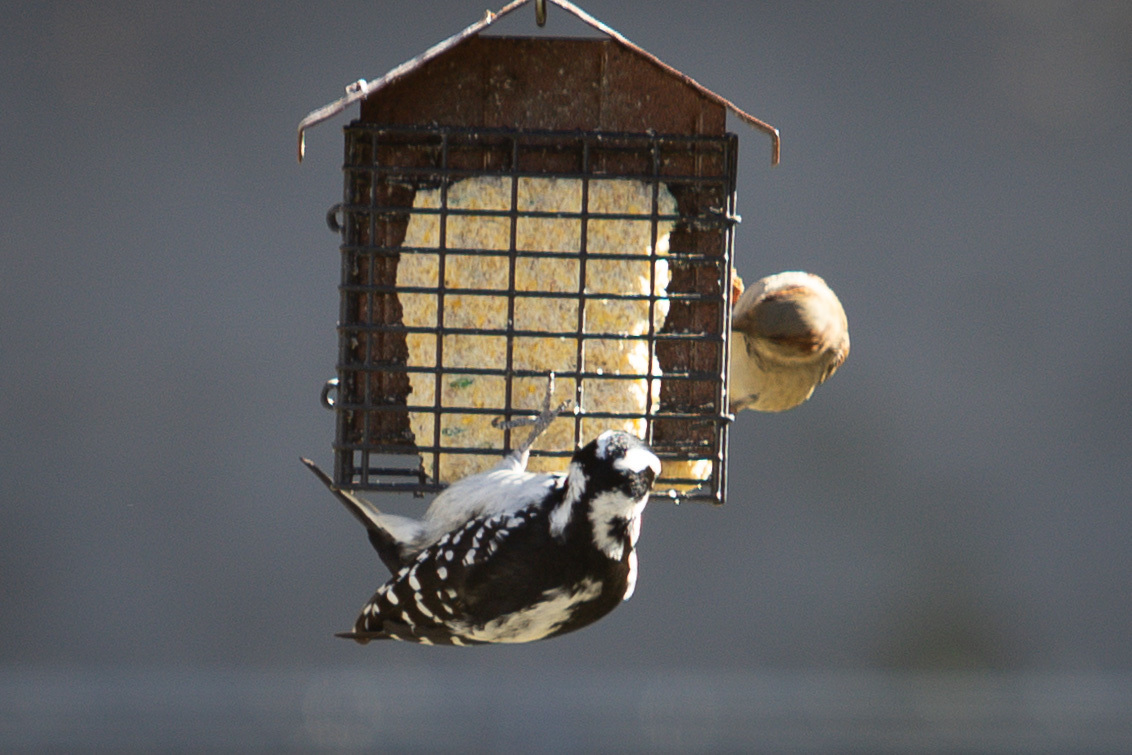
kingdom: Animalia
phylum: Chordata
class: Aves
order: Piciformes
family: Picidae
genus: Leuconotopicus
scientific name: Leuconotopicus villosus
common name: Hairy woodpecker
